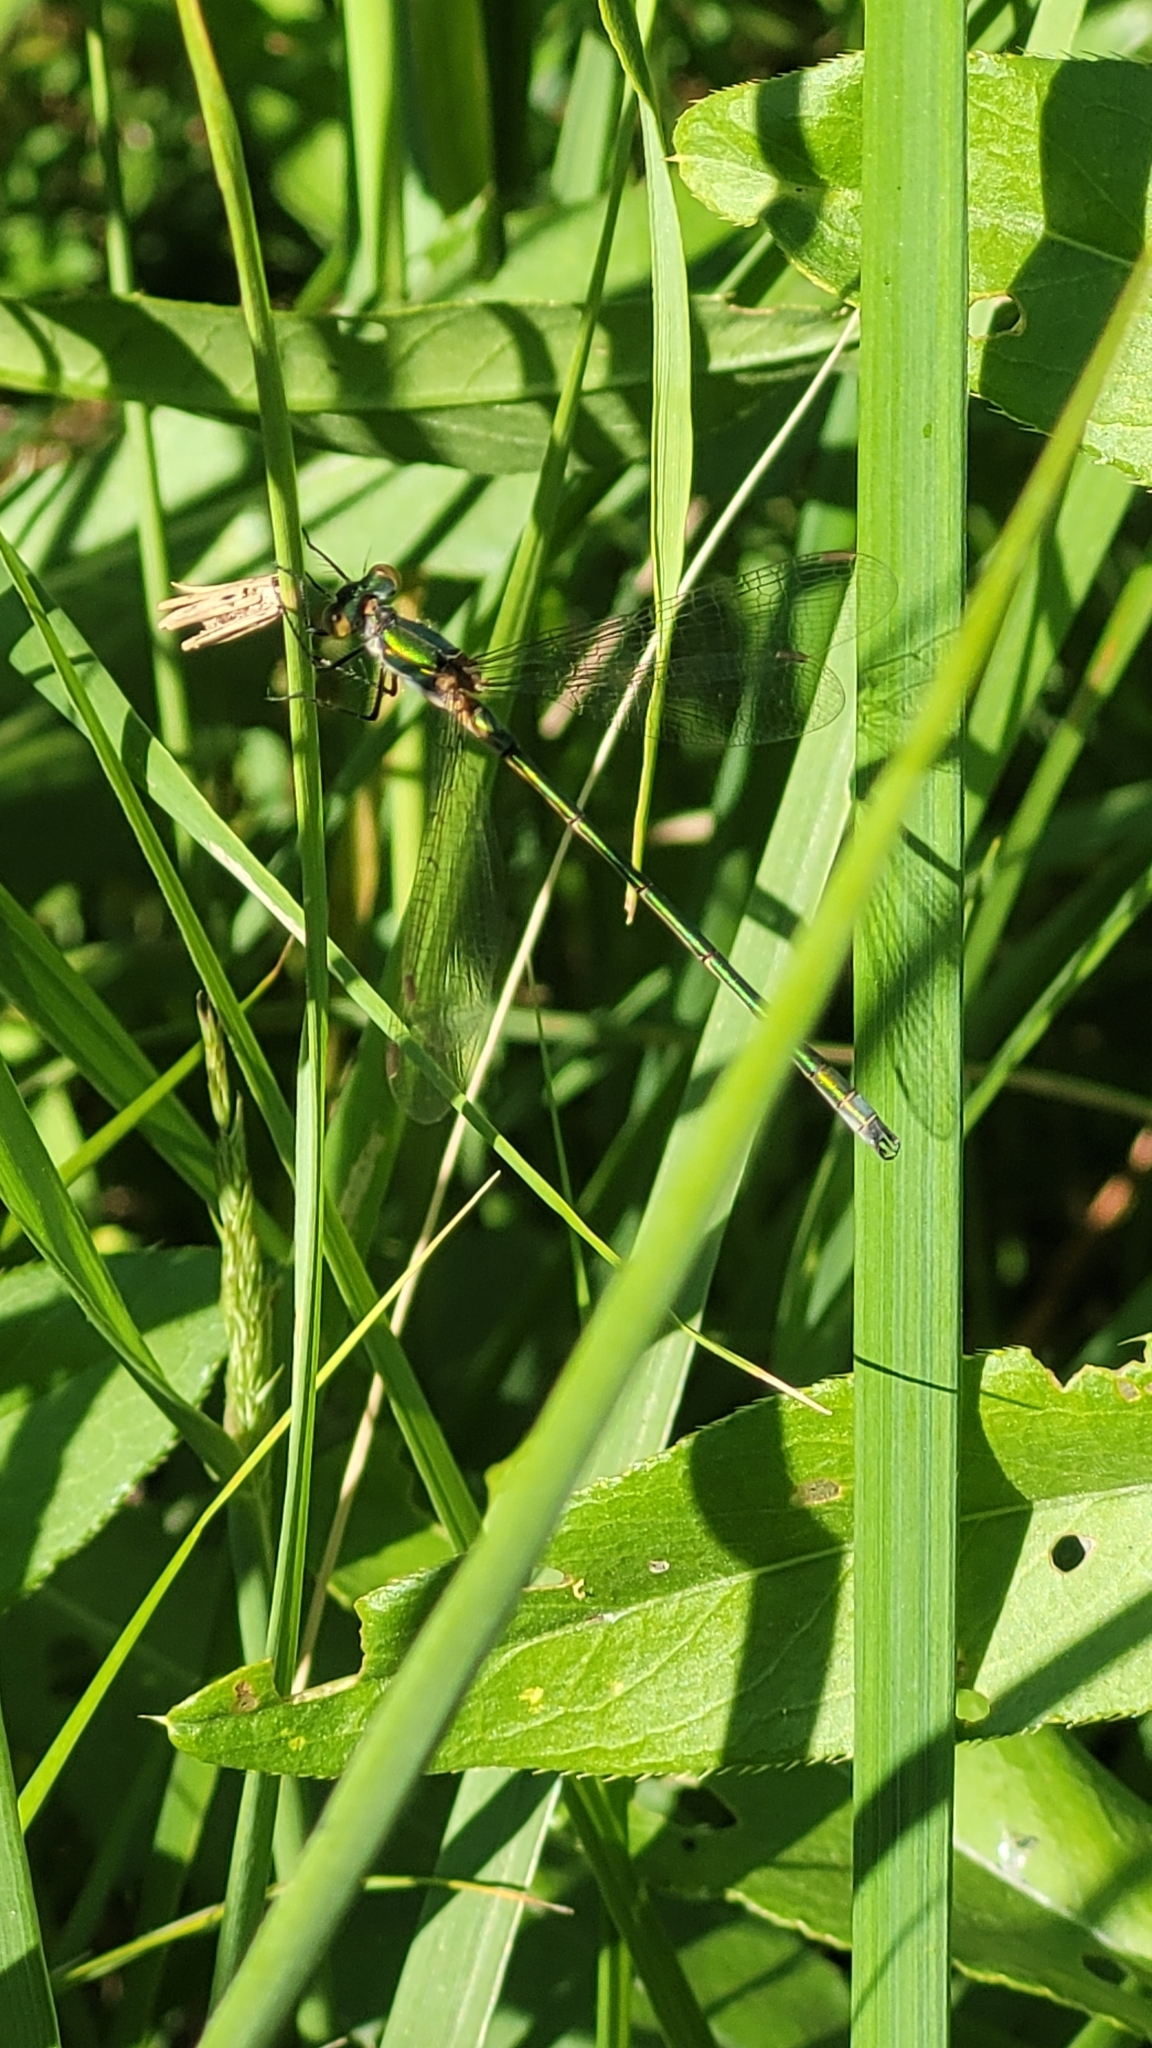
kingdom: Animalia
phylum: Arthropoda
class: Insecta
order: Odonata
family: Lestidae
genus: Lestes
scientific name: Lestes dryas
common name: Scarce emerald damselfly
